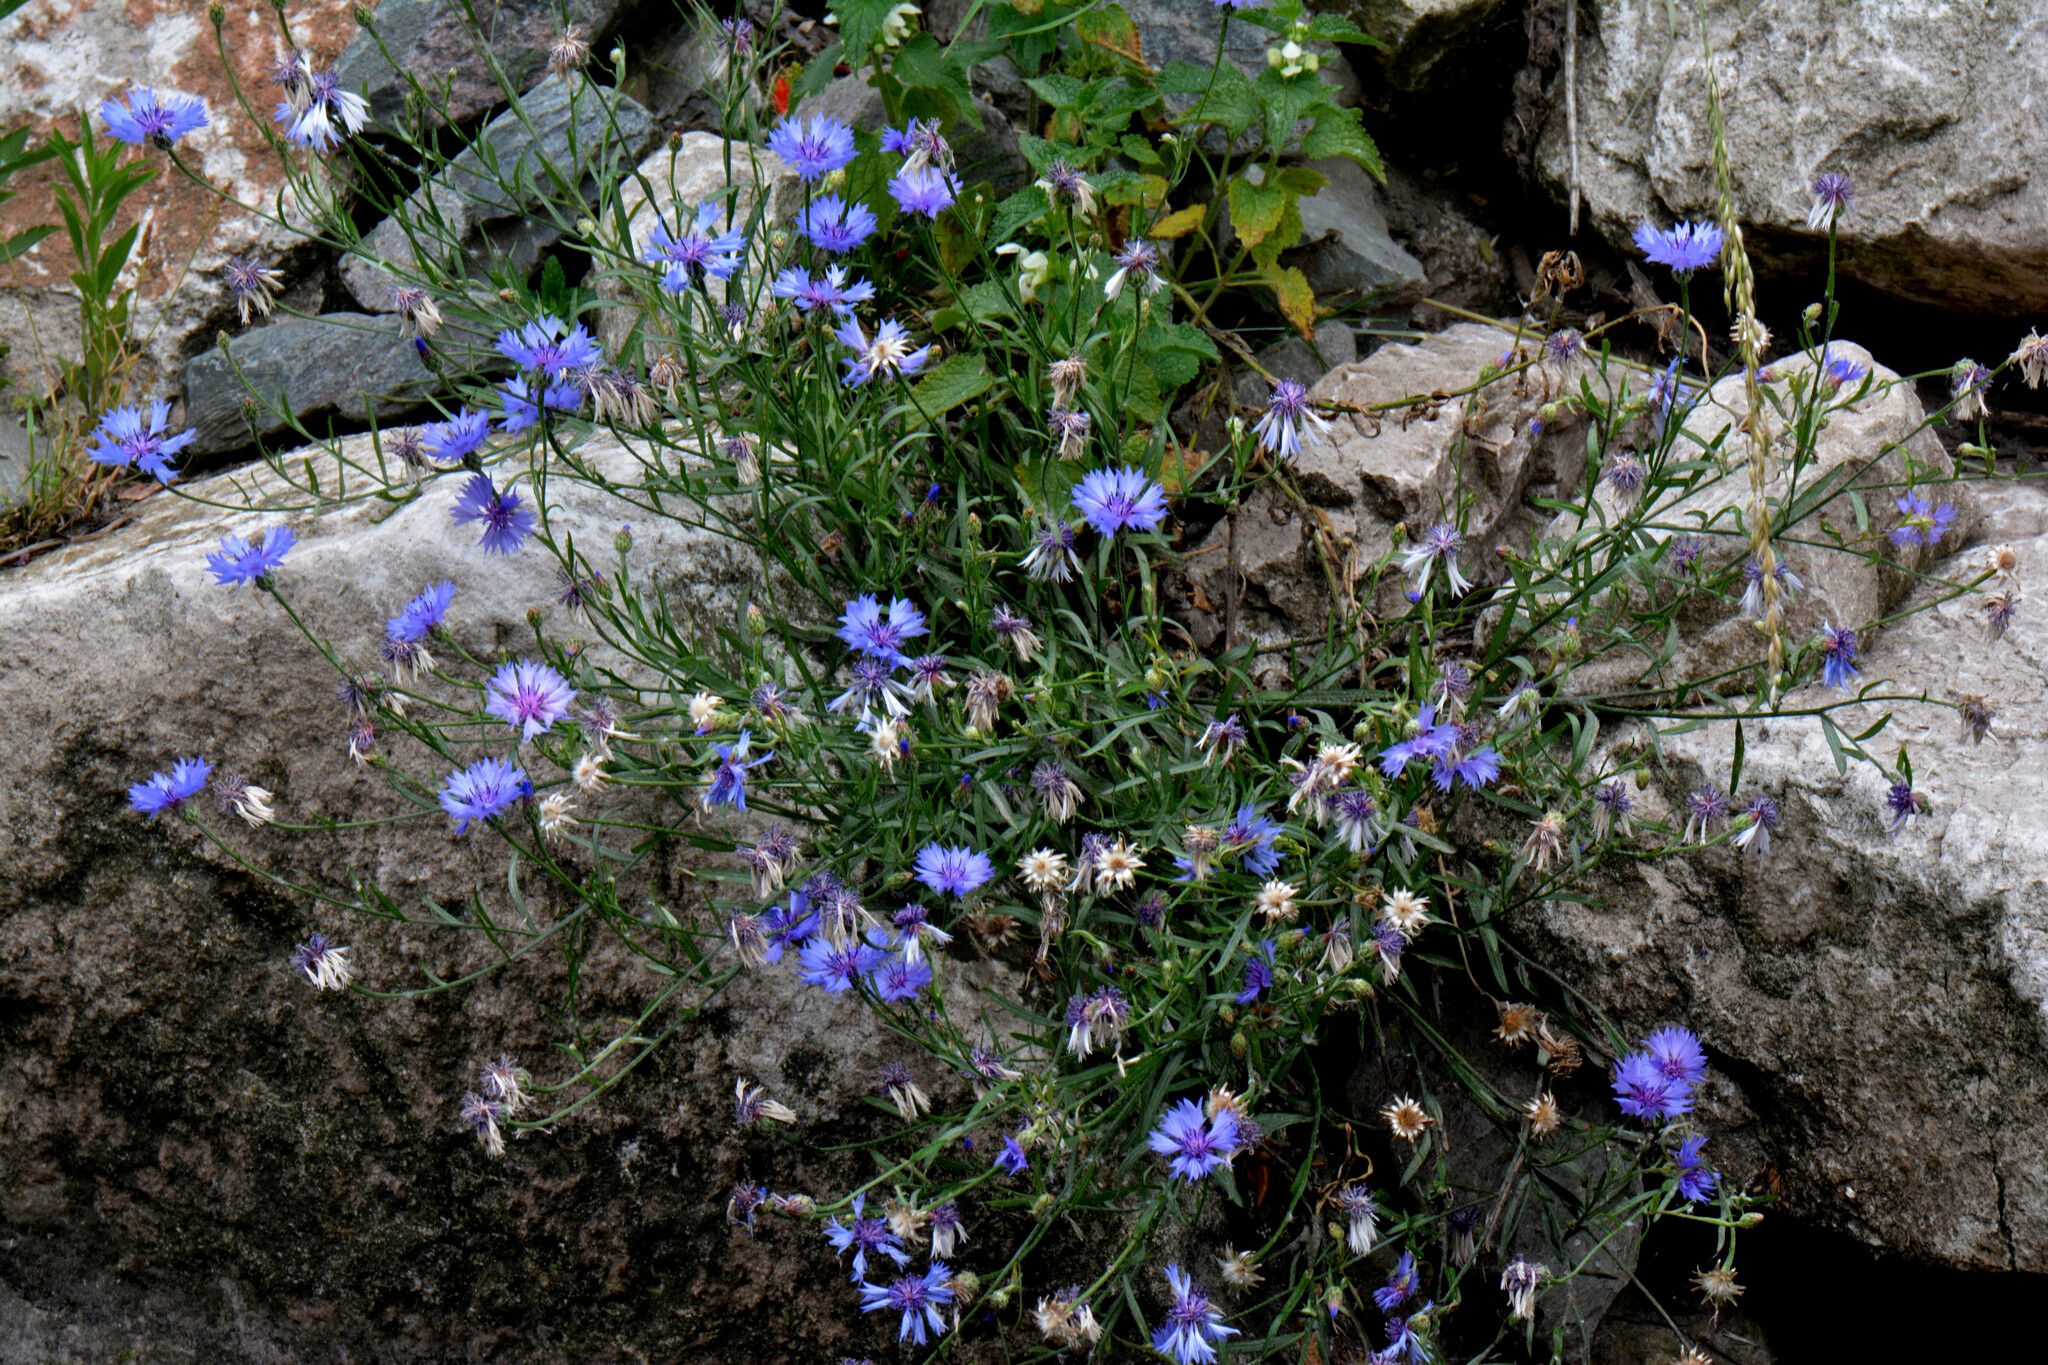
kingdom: Plantae
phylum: Tracheophyta
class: Magnoliopsida
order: Asterales
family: Asteraceae
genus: Centaurea
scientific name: Centaurea cyanus
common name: Cornflower
